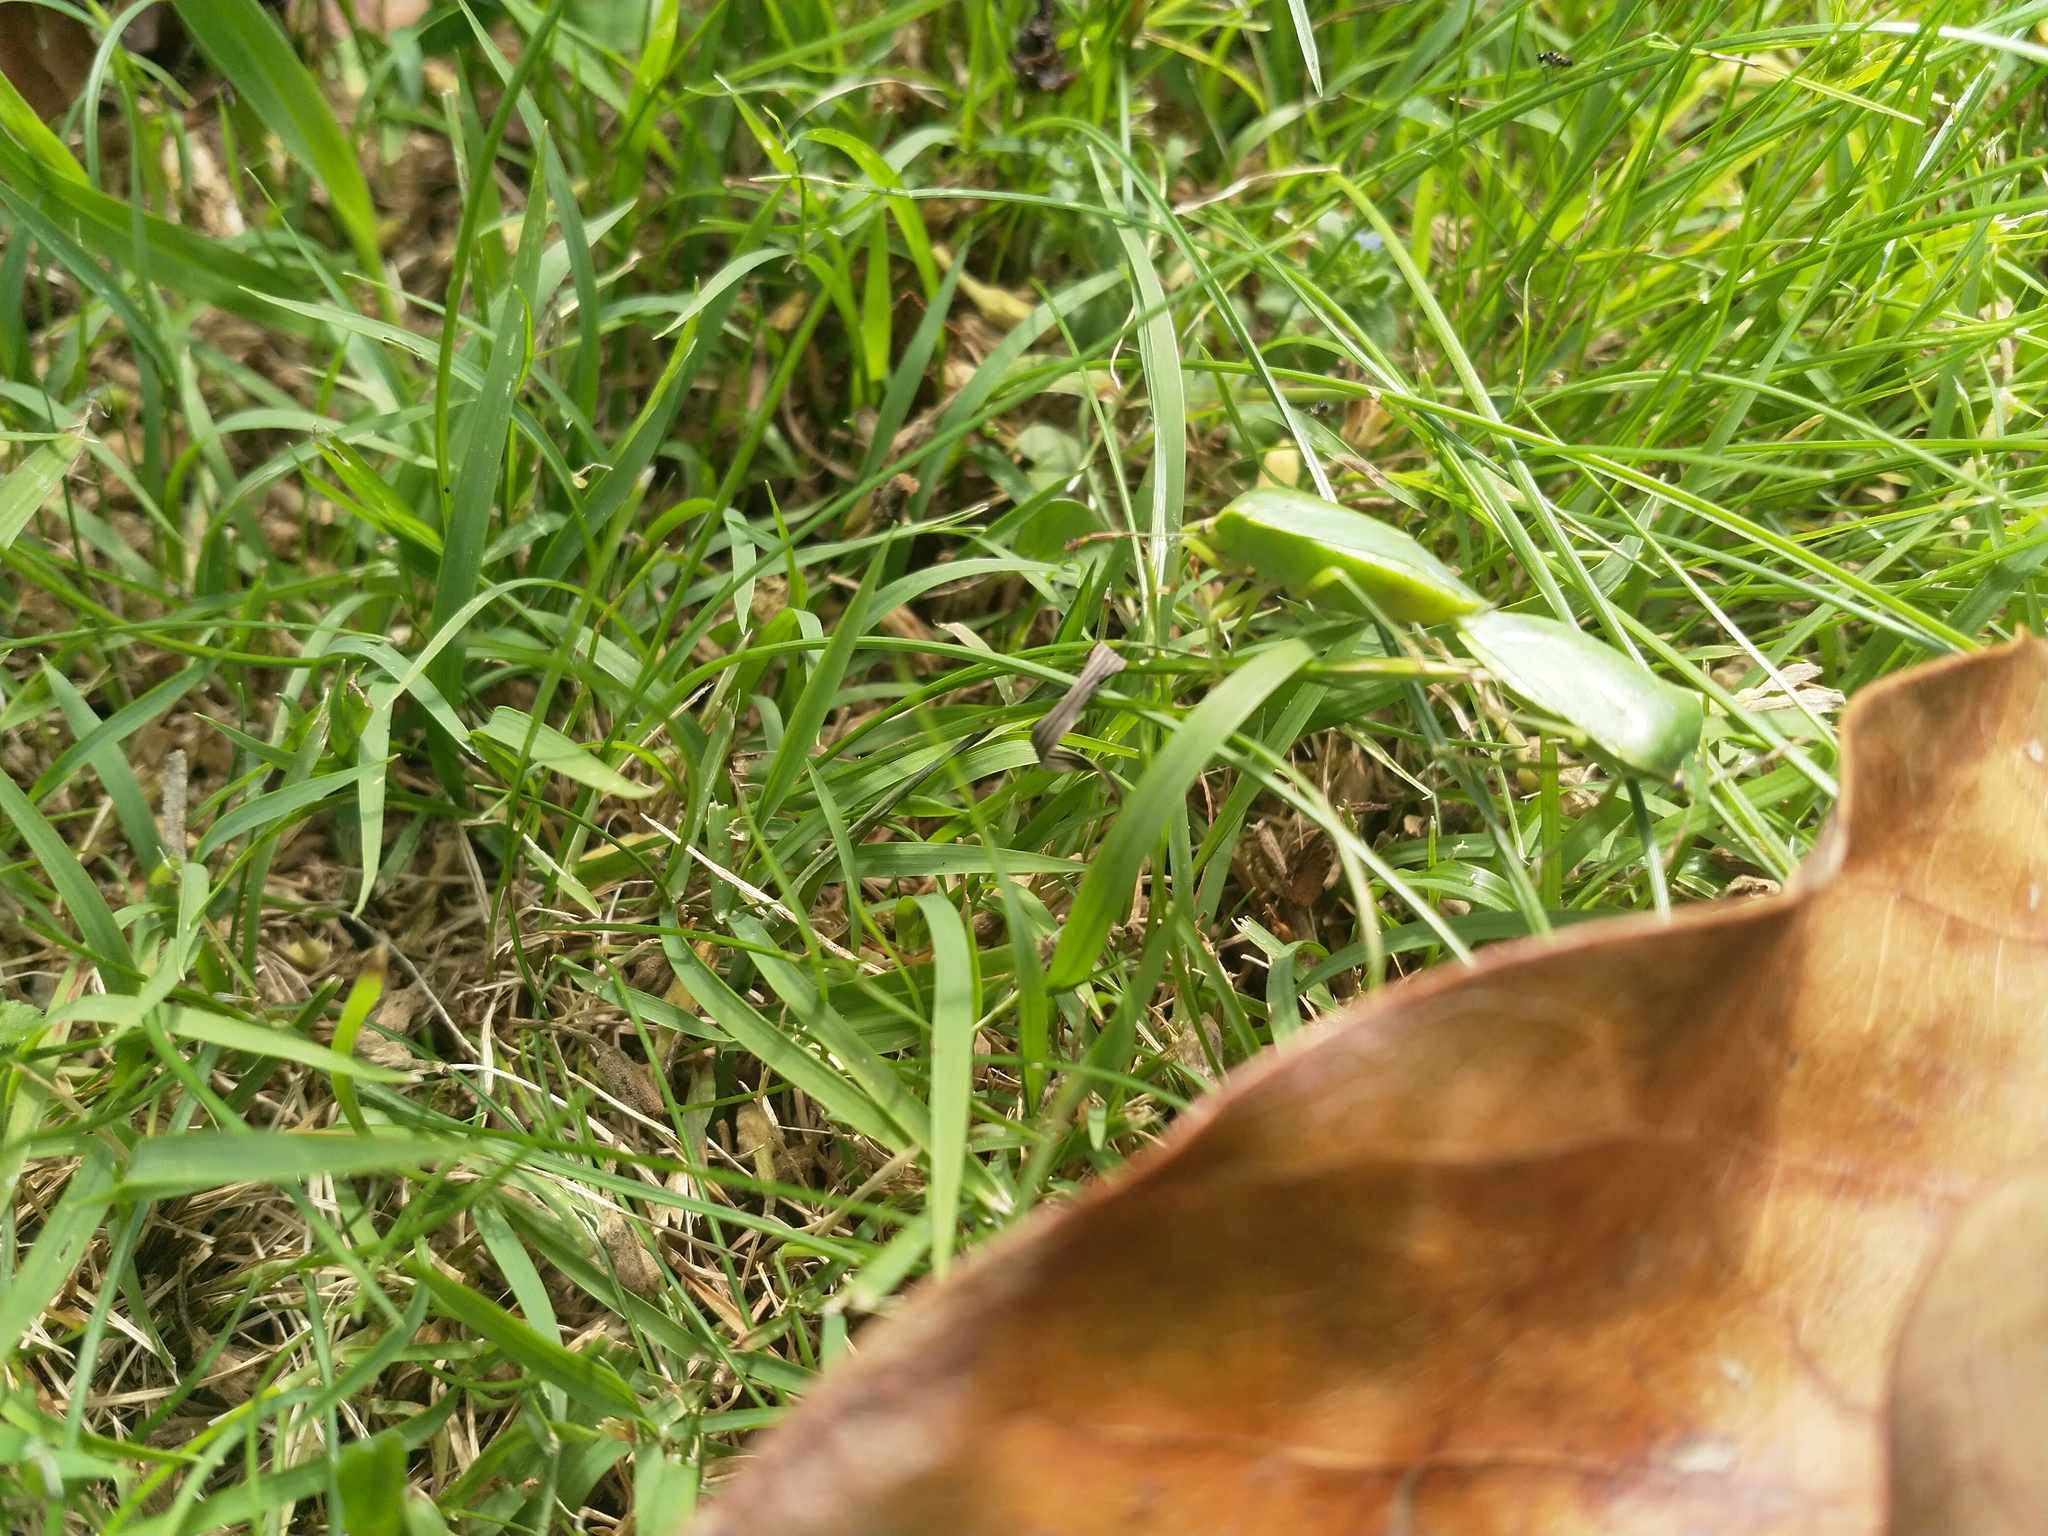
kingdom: Animalia
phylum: Arthropoda
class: Insecta
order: Hemiptera
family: Pentatomidae
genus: Nezara
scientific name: Nezara viridula
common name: Southern green stink bug
